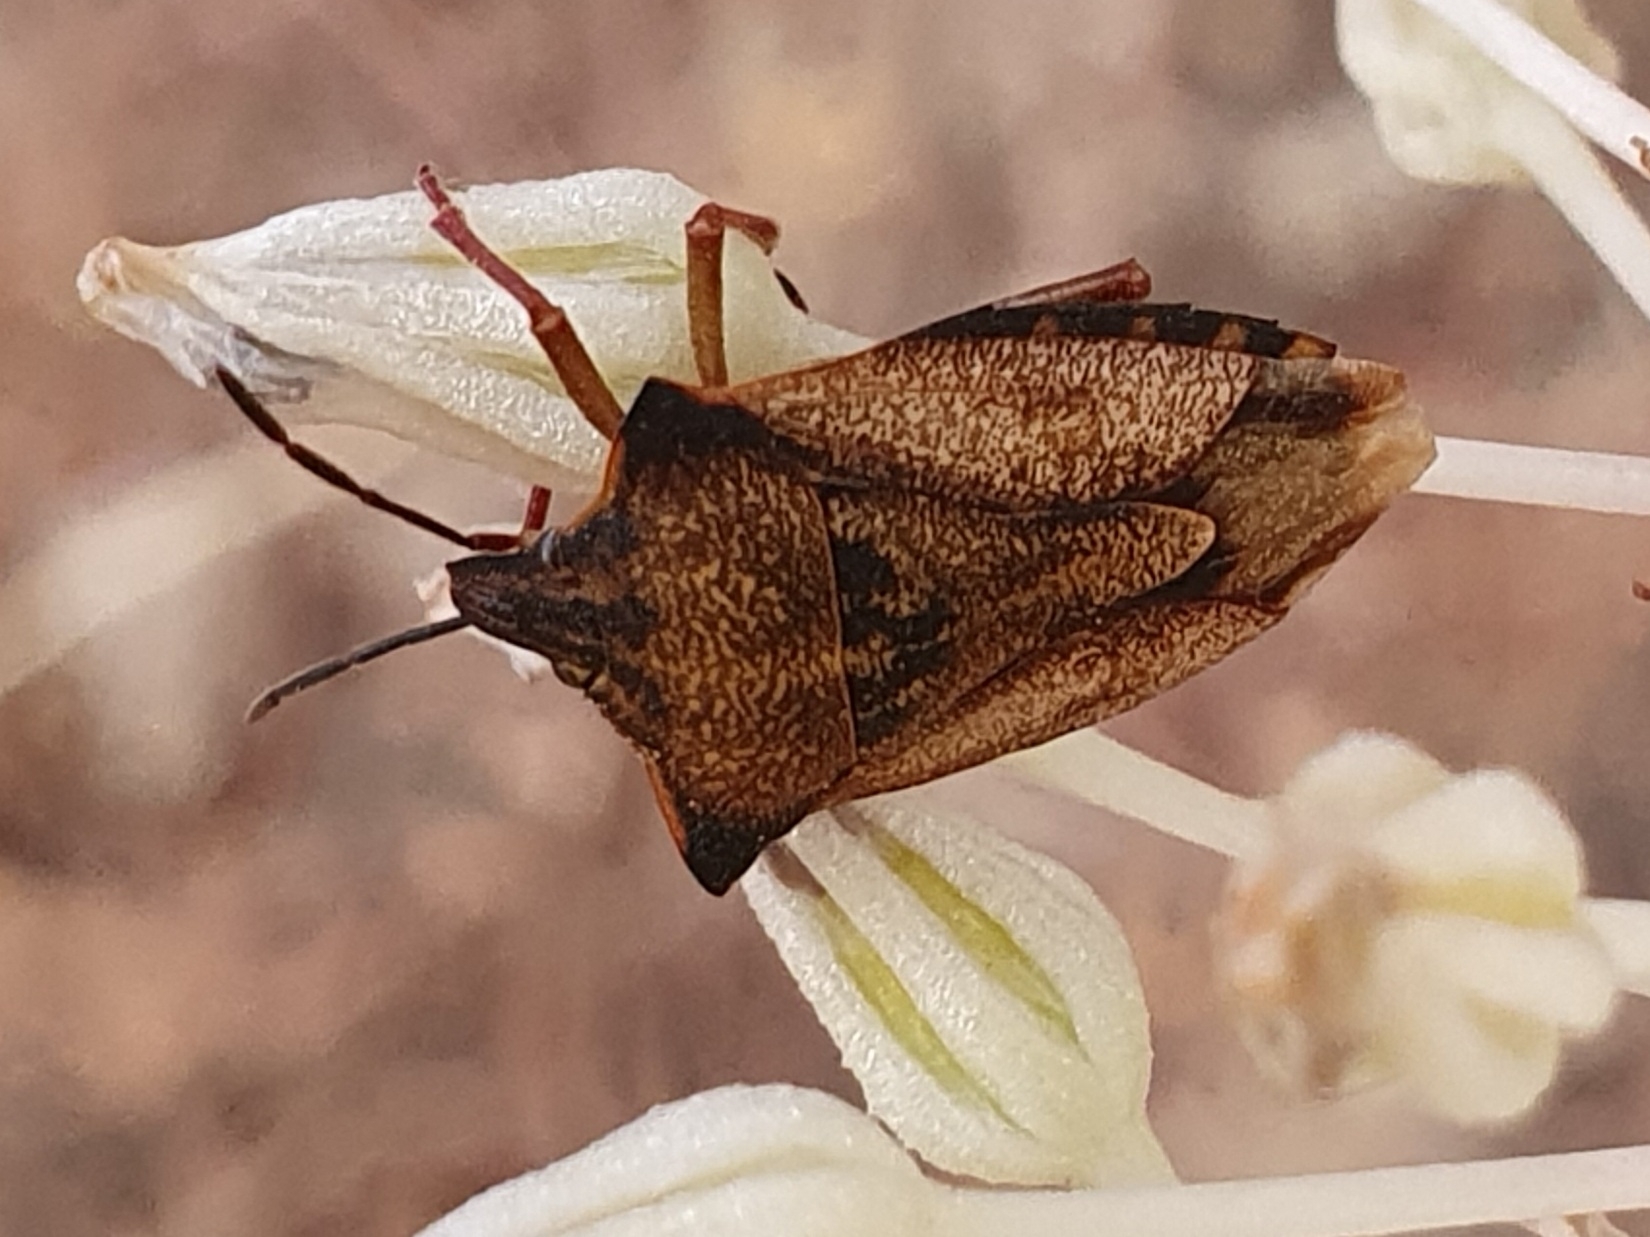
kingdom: Animalia
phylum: Arthropoda
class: Insecta
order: Hemiptera
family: Pentatomidae
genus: Carpocoris
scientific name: Carpocoris mediterraneus
